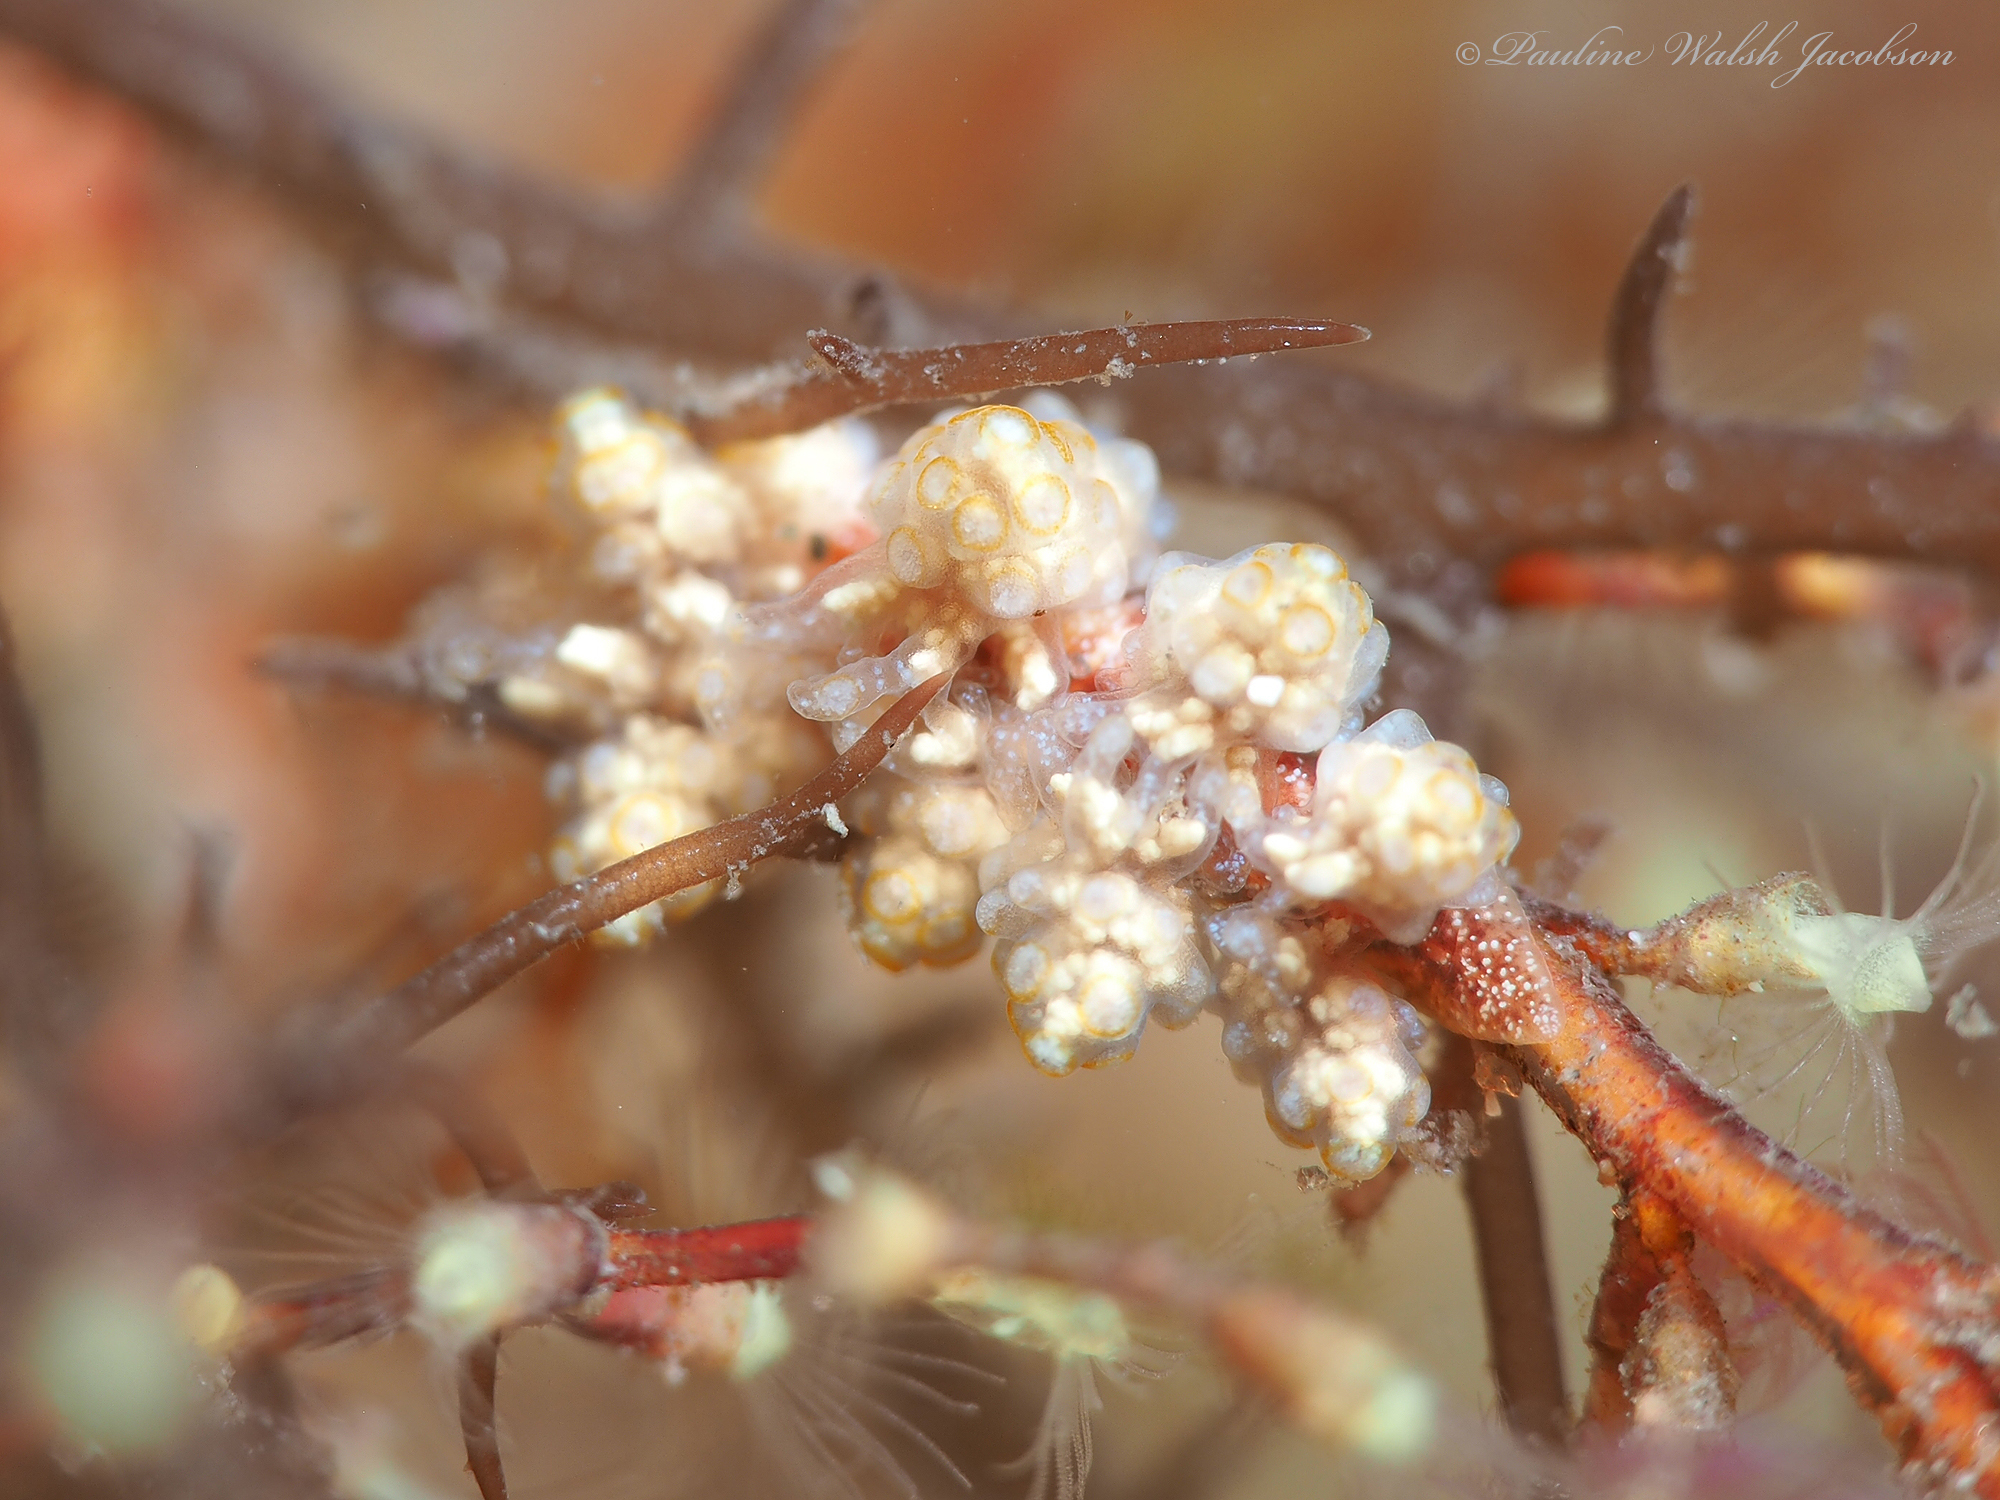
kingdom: Animalia
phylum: Mollusca
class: Gastropoda
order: Nudibranchia
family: Dotidae
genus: Doto
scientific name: Doto torrelavega
